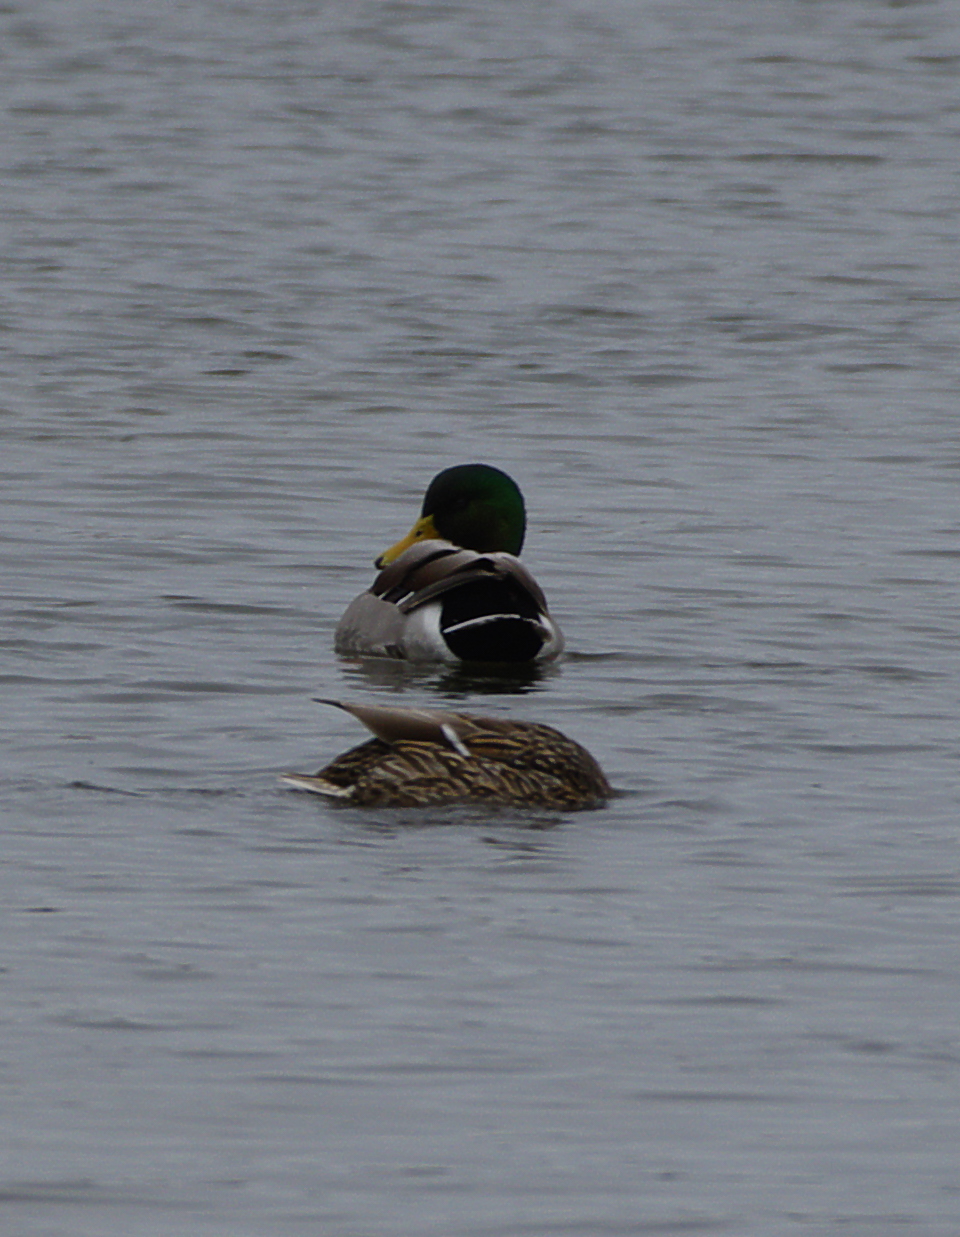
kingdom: Animalia
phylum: Chordata
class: Aves
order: Anseriformes
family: Anatidae
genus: Anas
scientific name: Anas platyrhynchos
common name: Mallard
